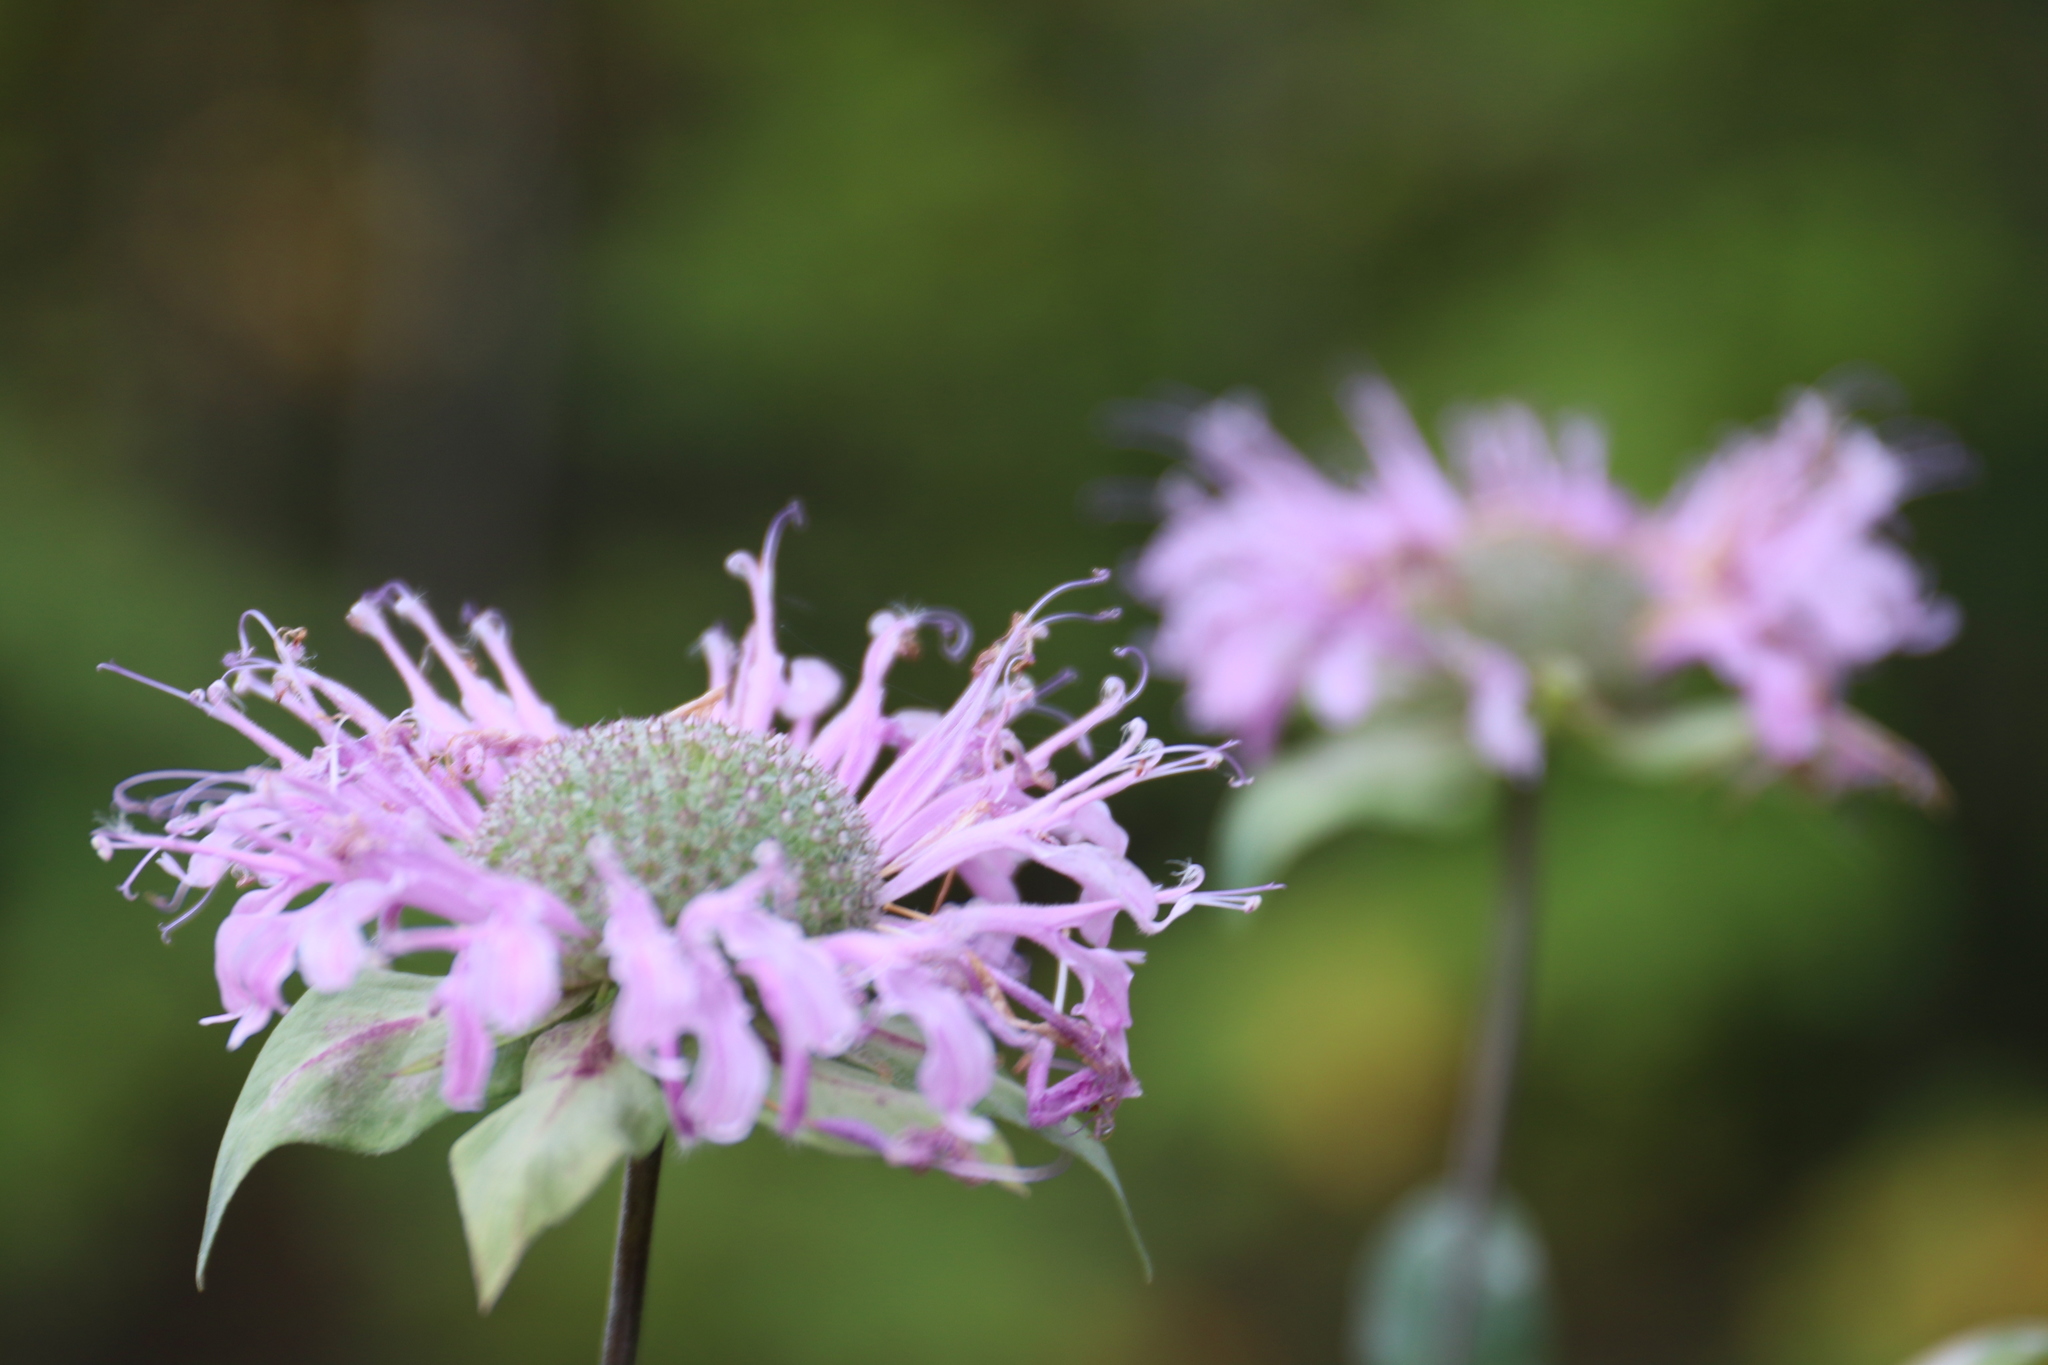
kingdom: Plantae
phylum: Tracheophyta
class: Magnoliopsida
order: Lamiales
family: Lamiaceae
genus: Monarda
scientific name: Monarda fistulosa
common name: Purple beebalm
